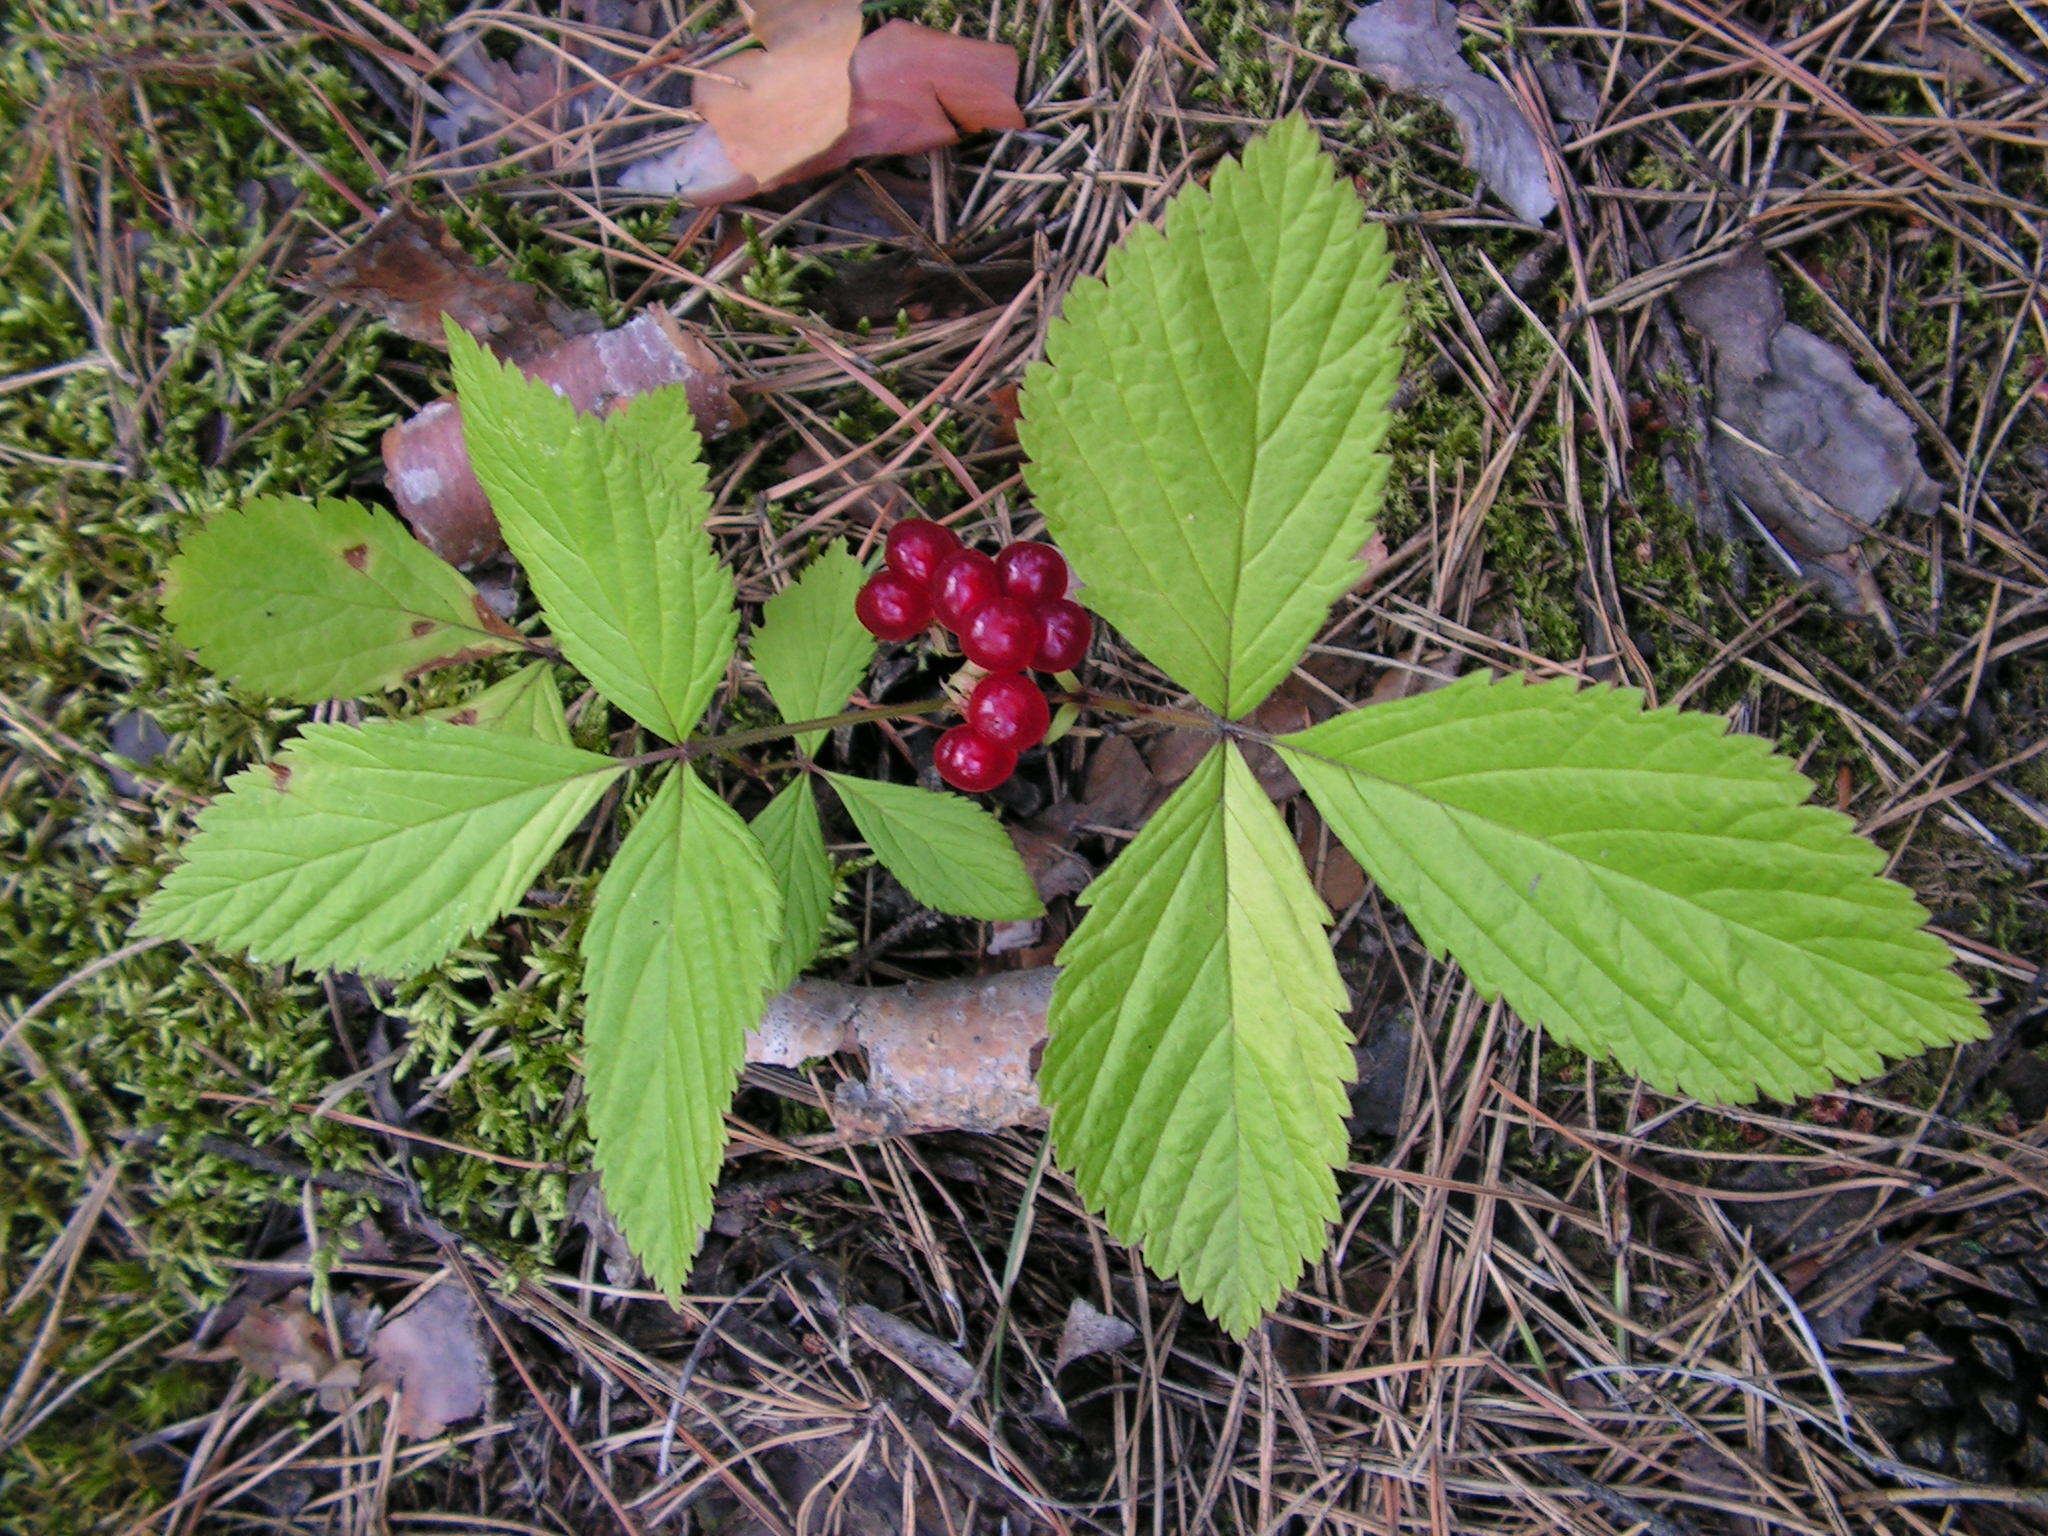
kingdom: Plantae
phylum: Tracheophyta
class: Magnoliopsida
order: Rosales
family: Rosaceae
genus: Rubus
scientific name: Rubus saxatilis
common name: Stone bramble
